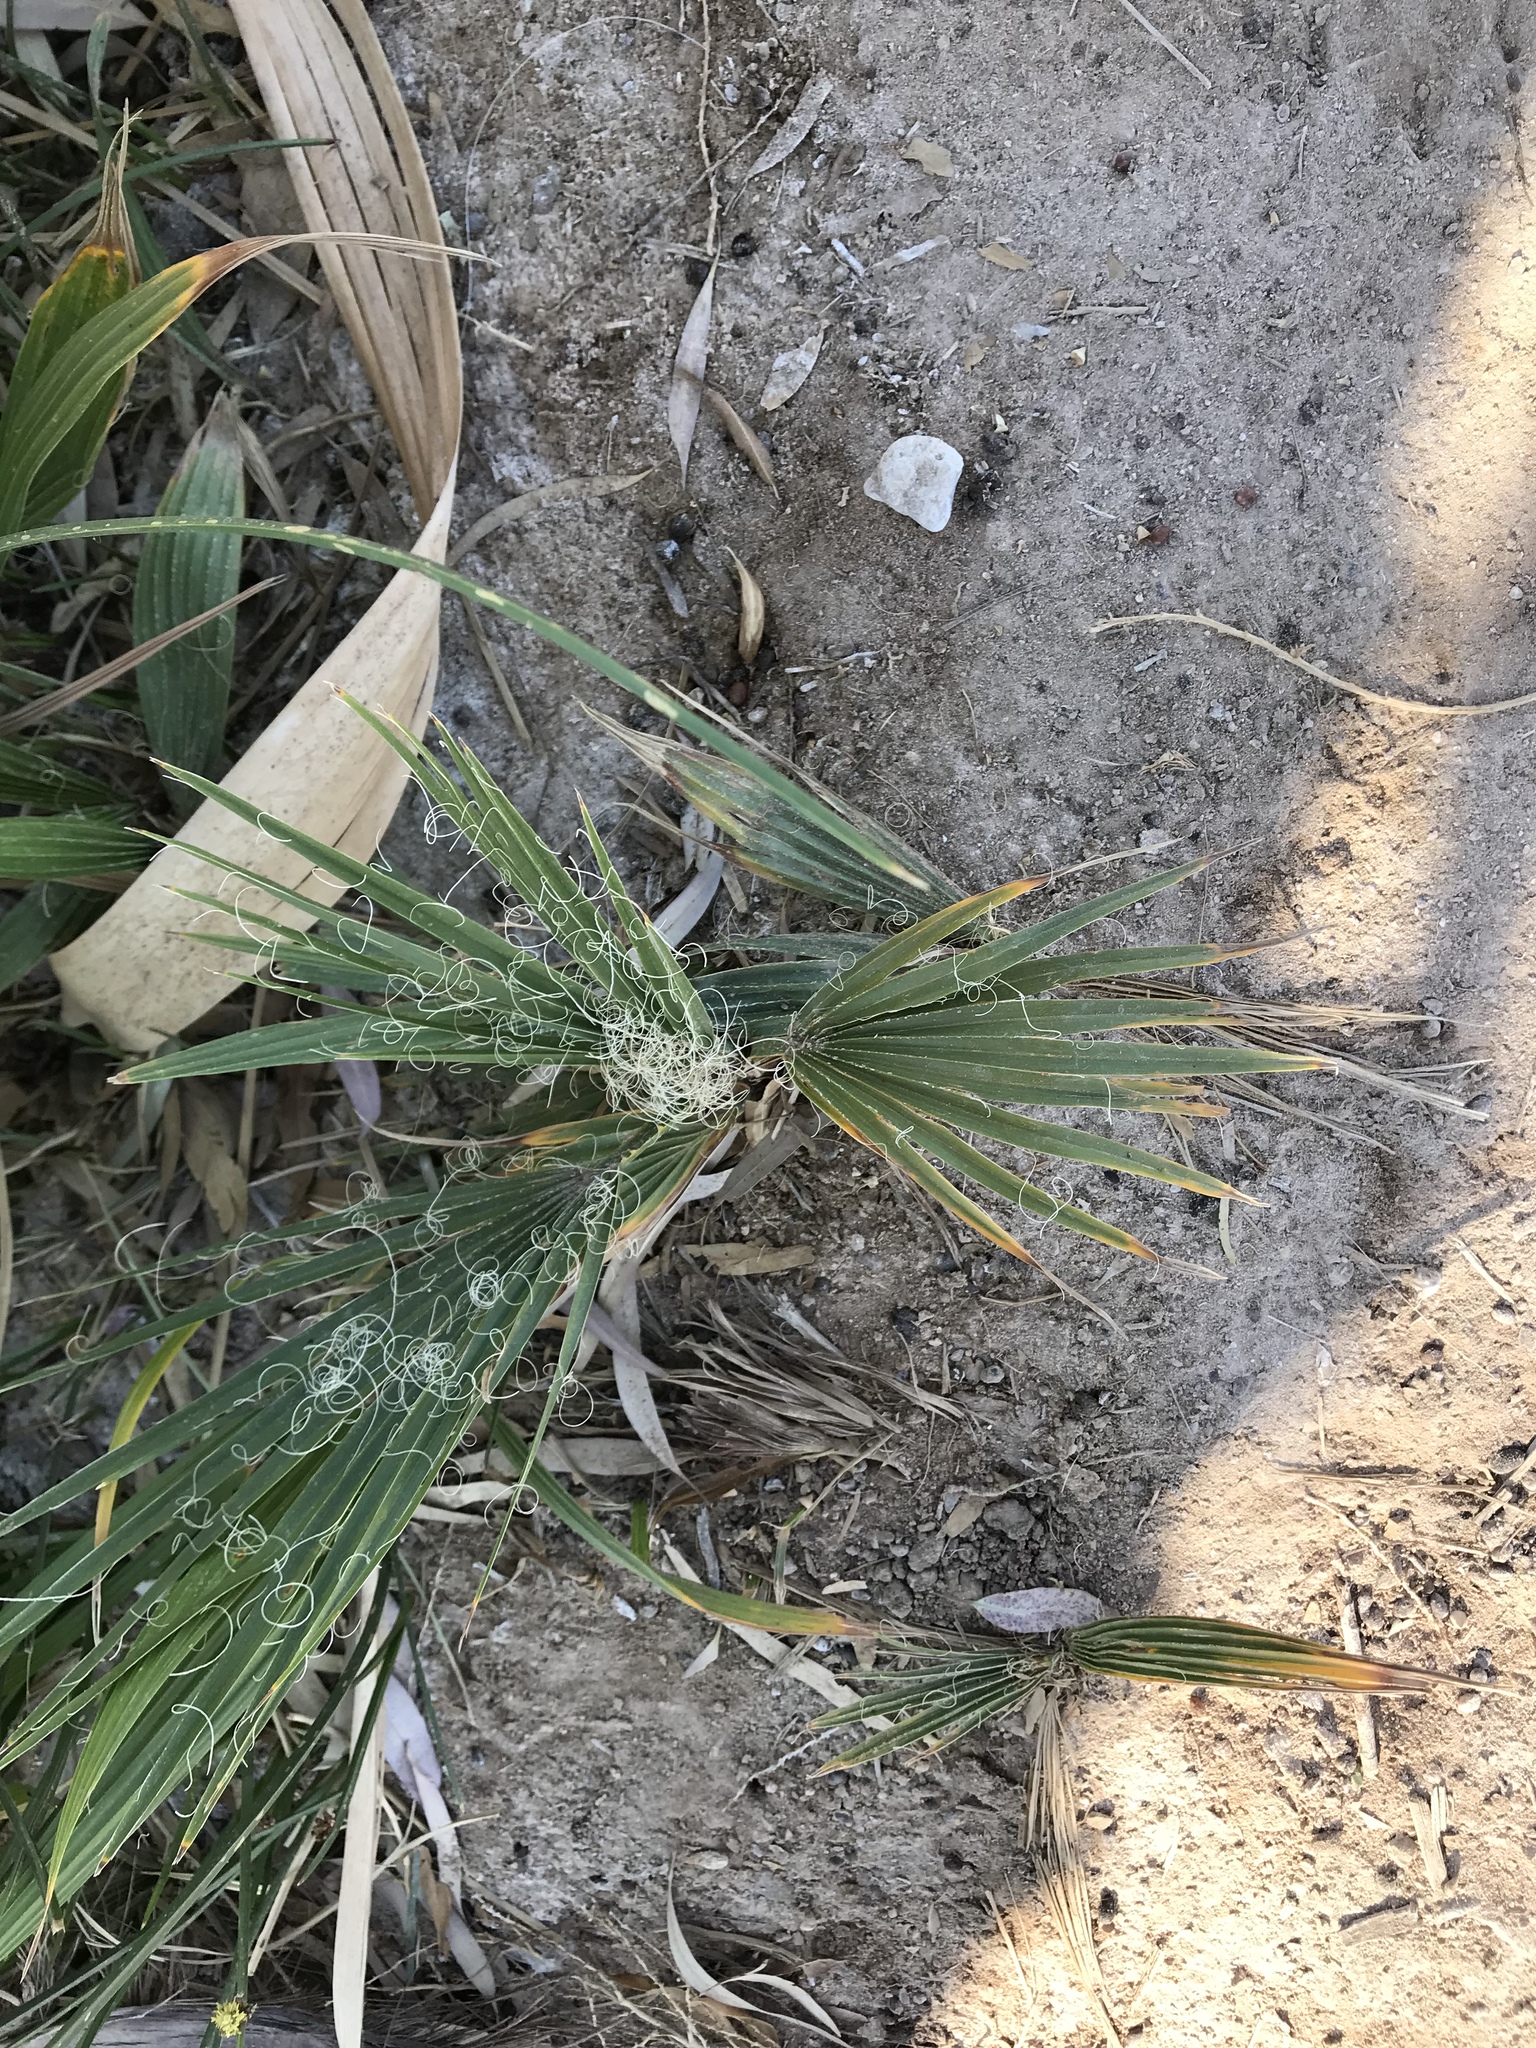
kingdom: Plantae
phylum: Tracheophyta
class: Liliopsida
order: Arecales
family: Arecaceae
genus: Washingtonia
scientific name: Washingtonia filifera
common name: California fan palm
